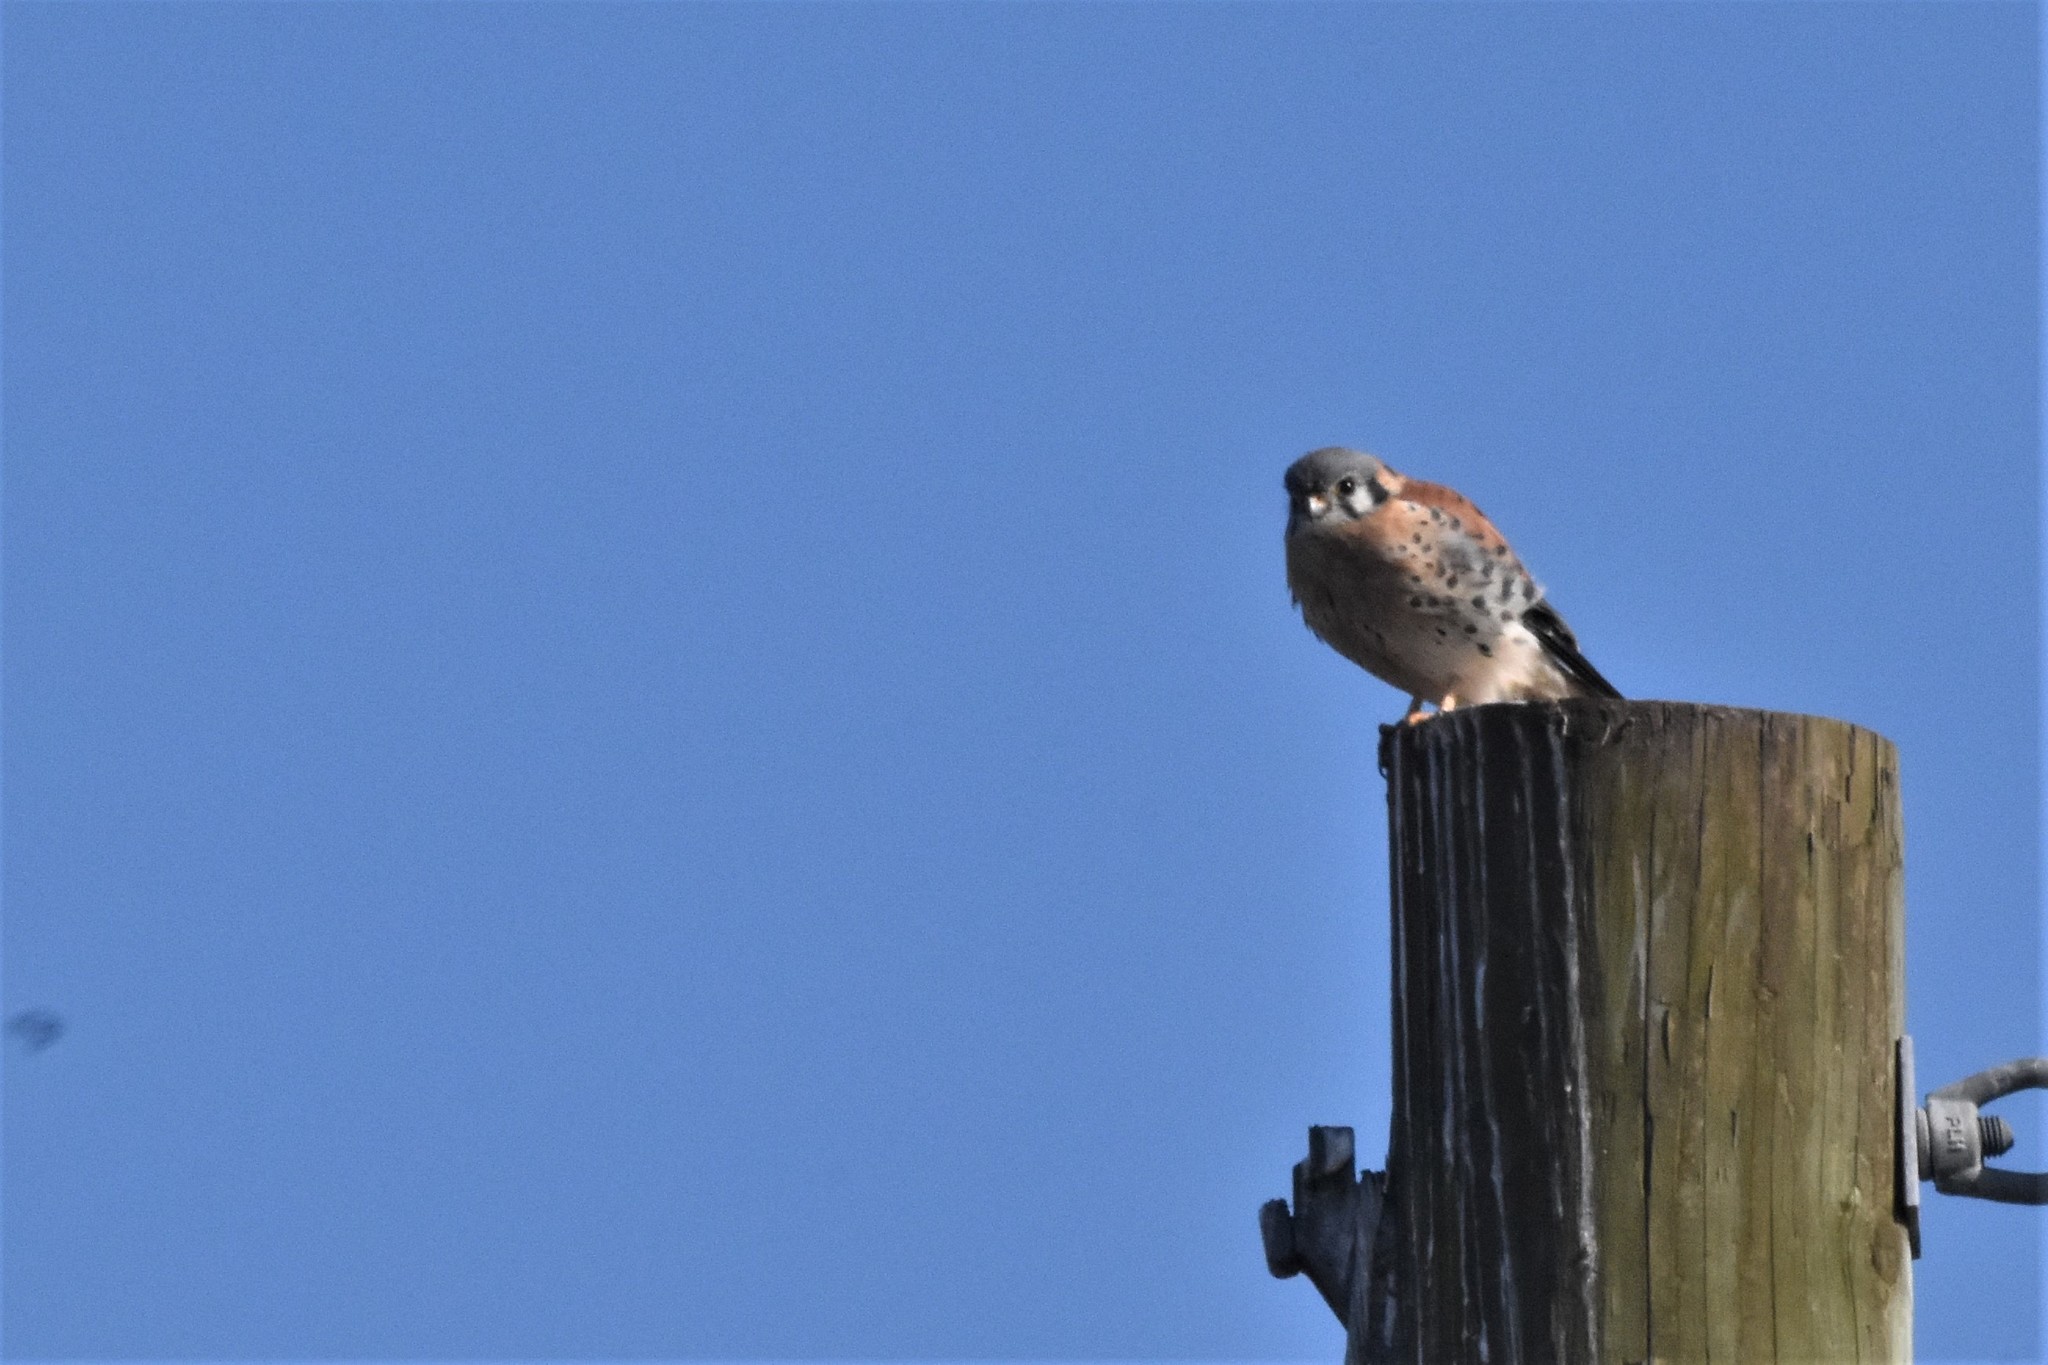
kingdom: Animalia
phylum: Chordata
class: Aves
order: Falconiformes
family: Falconidae
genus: Falco
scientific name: Falco sparverius
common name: American kestrel
